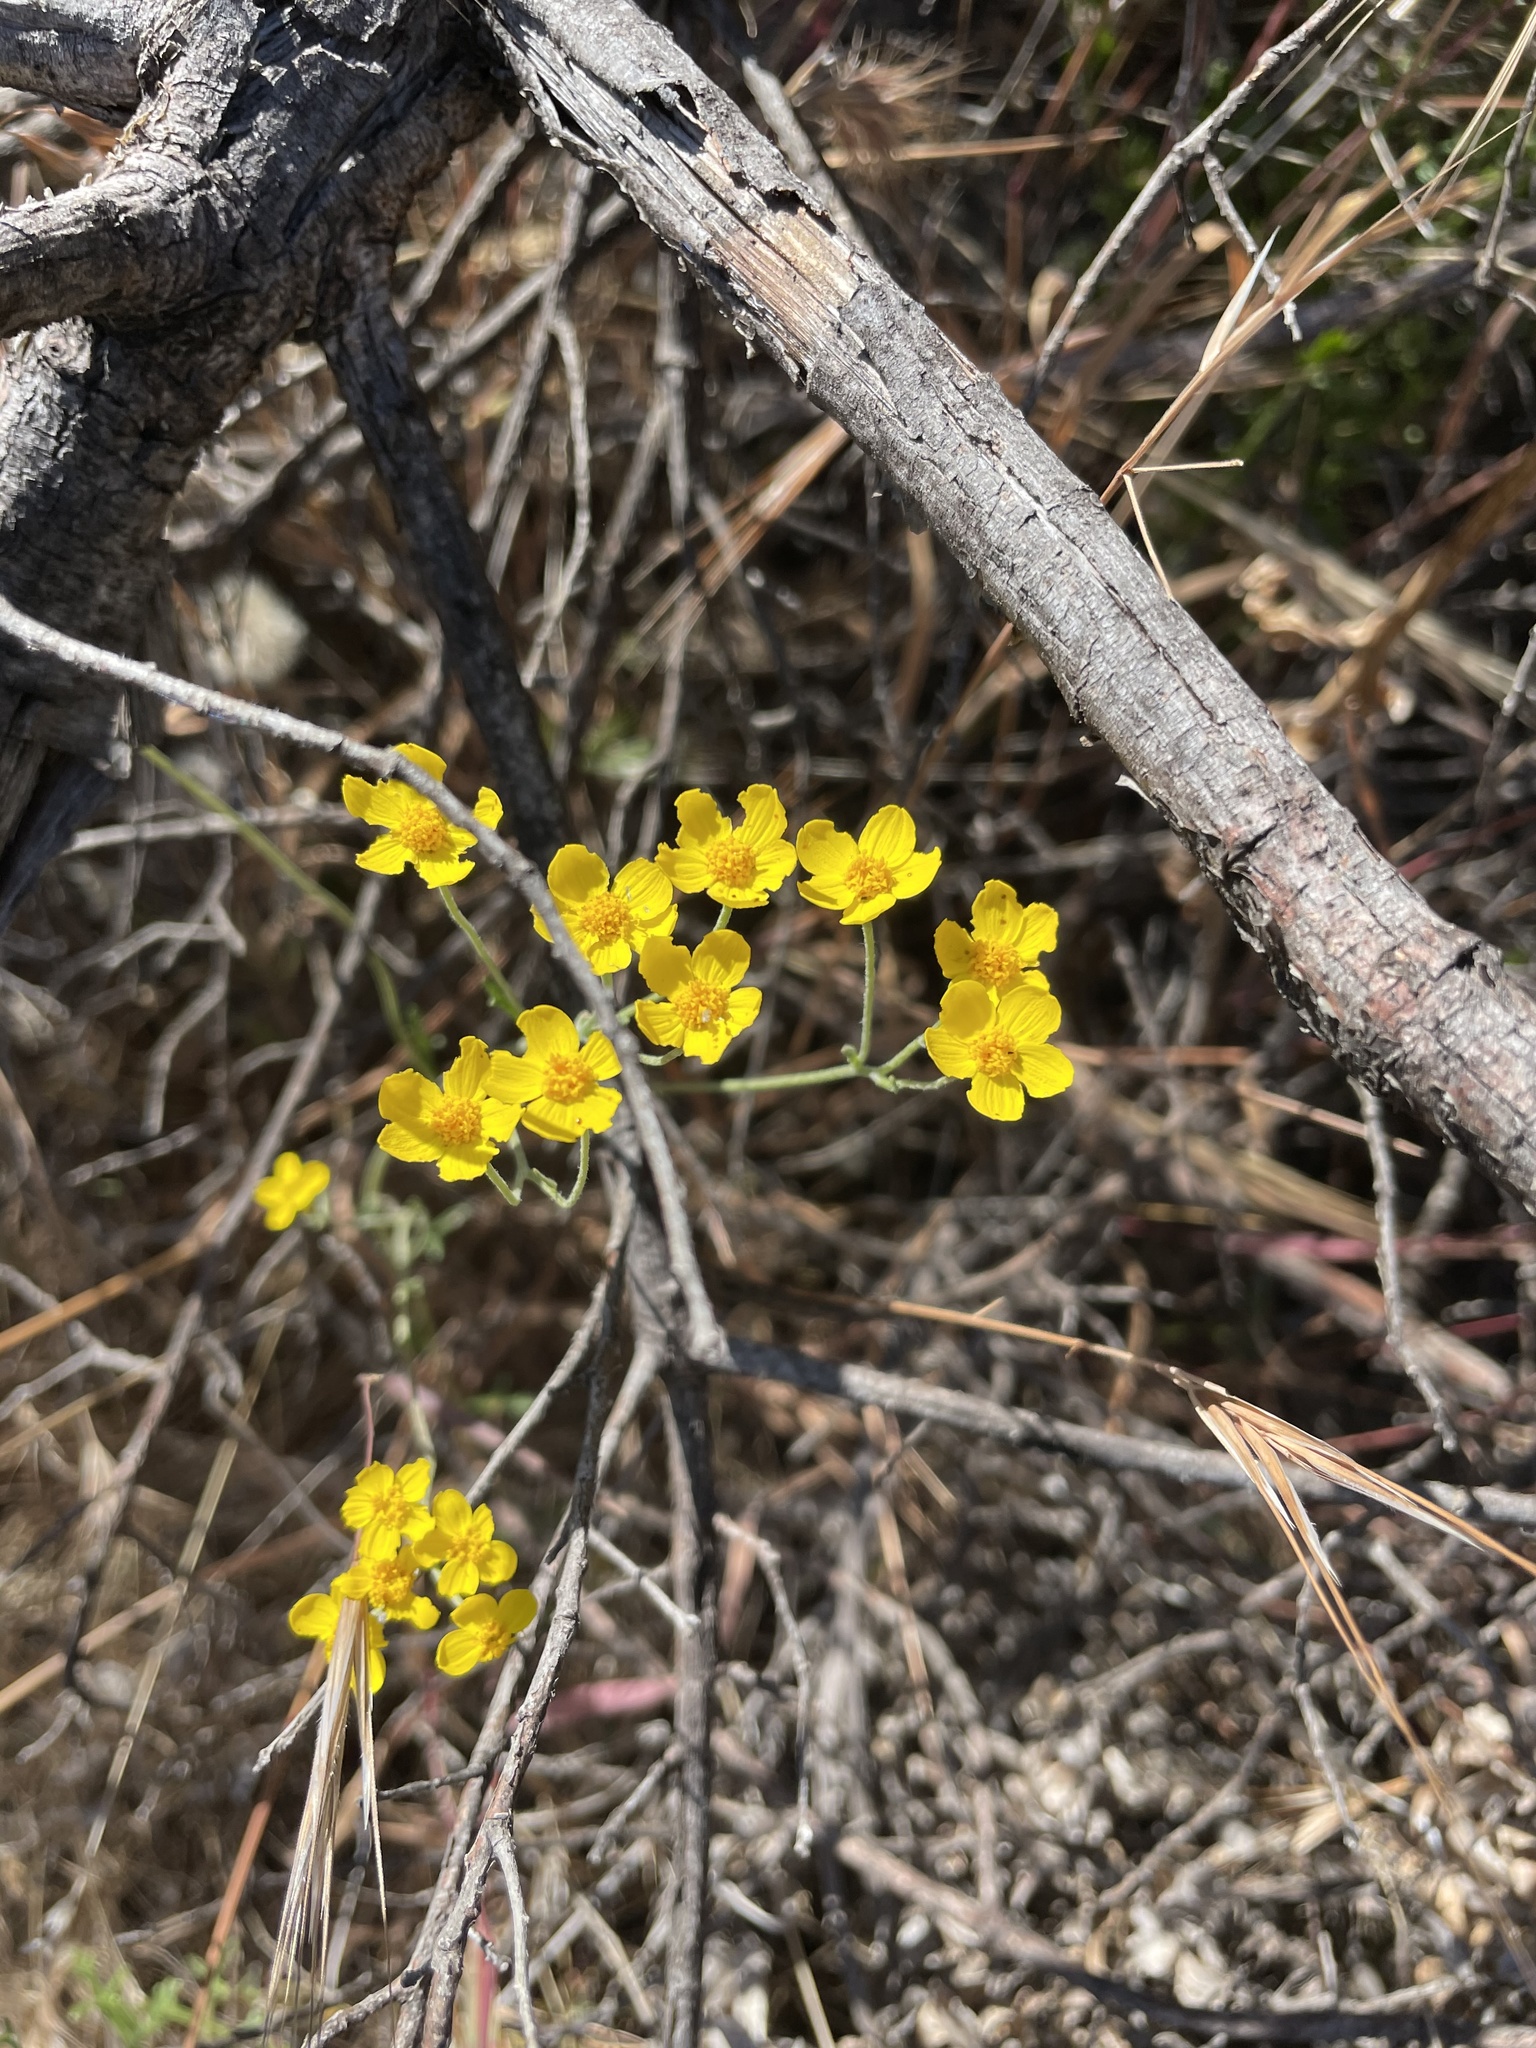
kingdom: Plantae
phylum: Tracheophyta
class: Magnoliopsida
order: Asterales
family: Asteraceae
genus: Eriophyllum
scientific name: Eriophyllum confertiflorum
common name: Golden-yarrow
